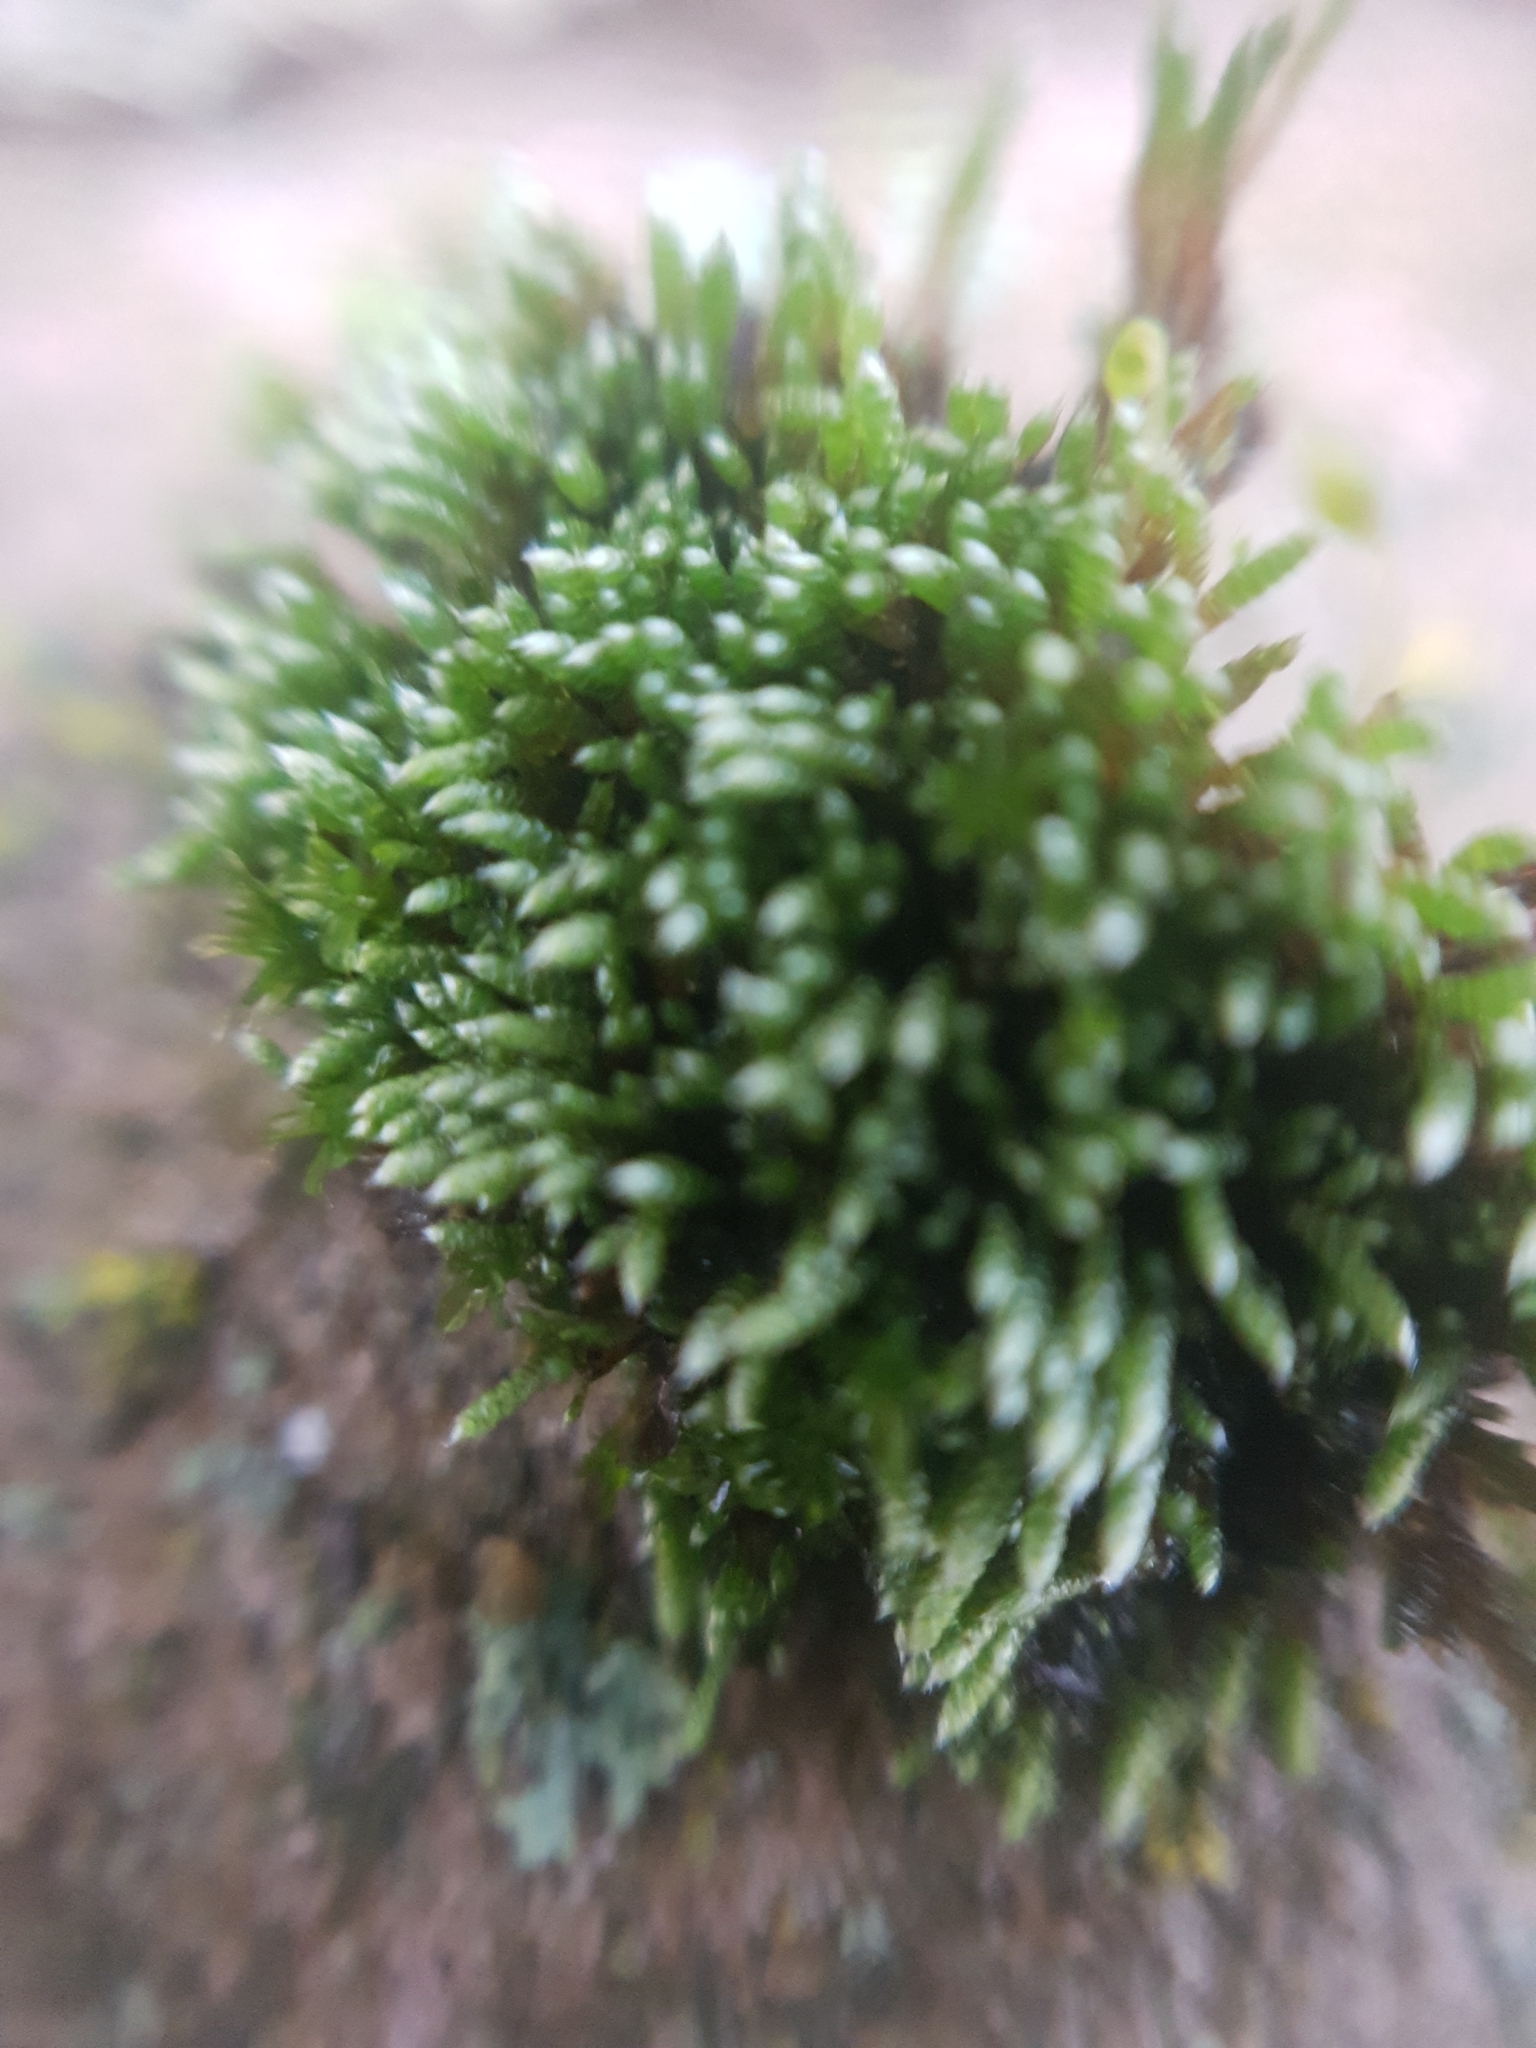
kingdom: Plantae
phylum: Bryophyta
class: Bryopsida
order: Bryales
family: Bryaceae
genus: Bryum
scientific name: Bryum argenteum
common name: Silver-moss
